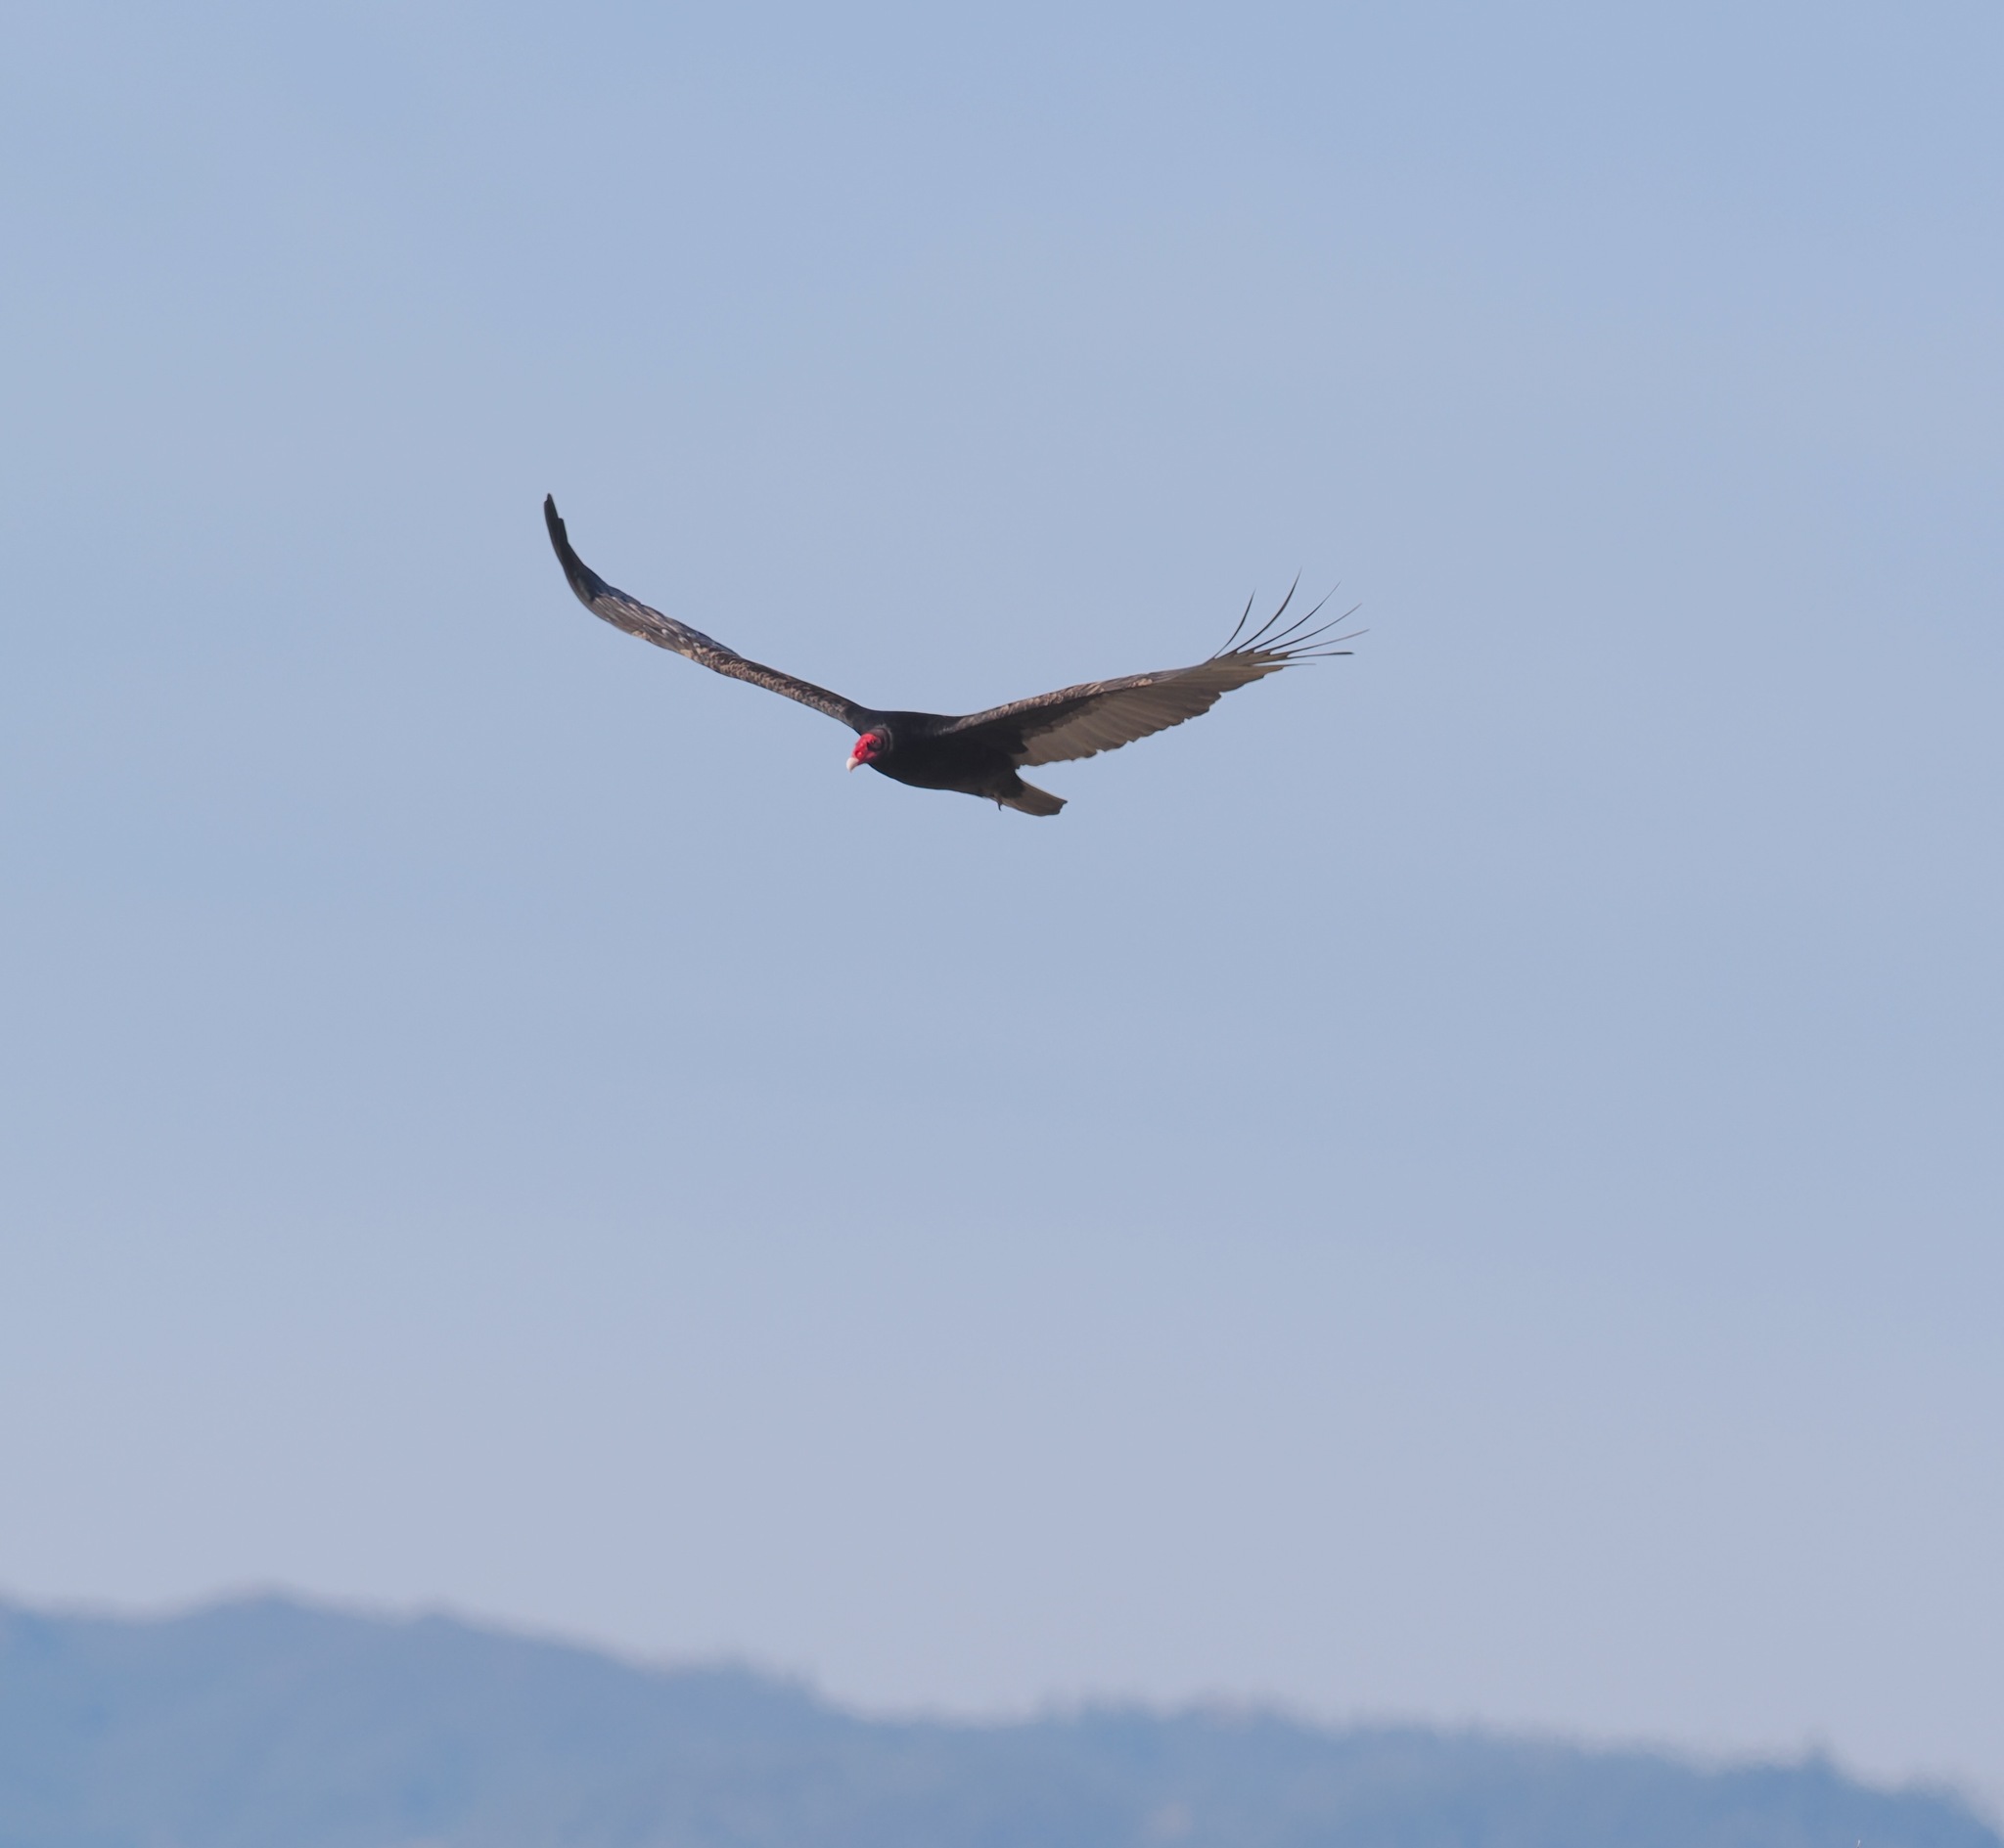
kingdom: Animalia
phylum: Chordata
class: Aves
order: Accipitriformes
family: Cathartidae
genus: Cathartes
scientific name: Cathartes aura
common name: Turkey vulture
